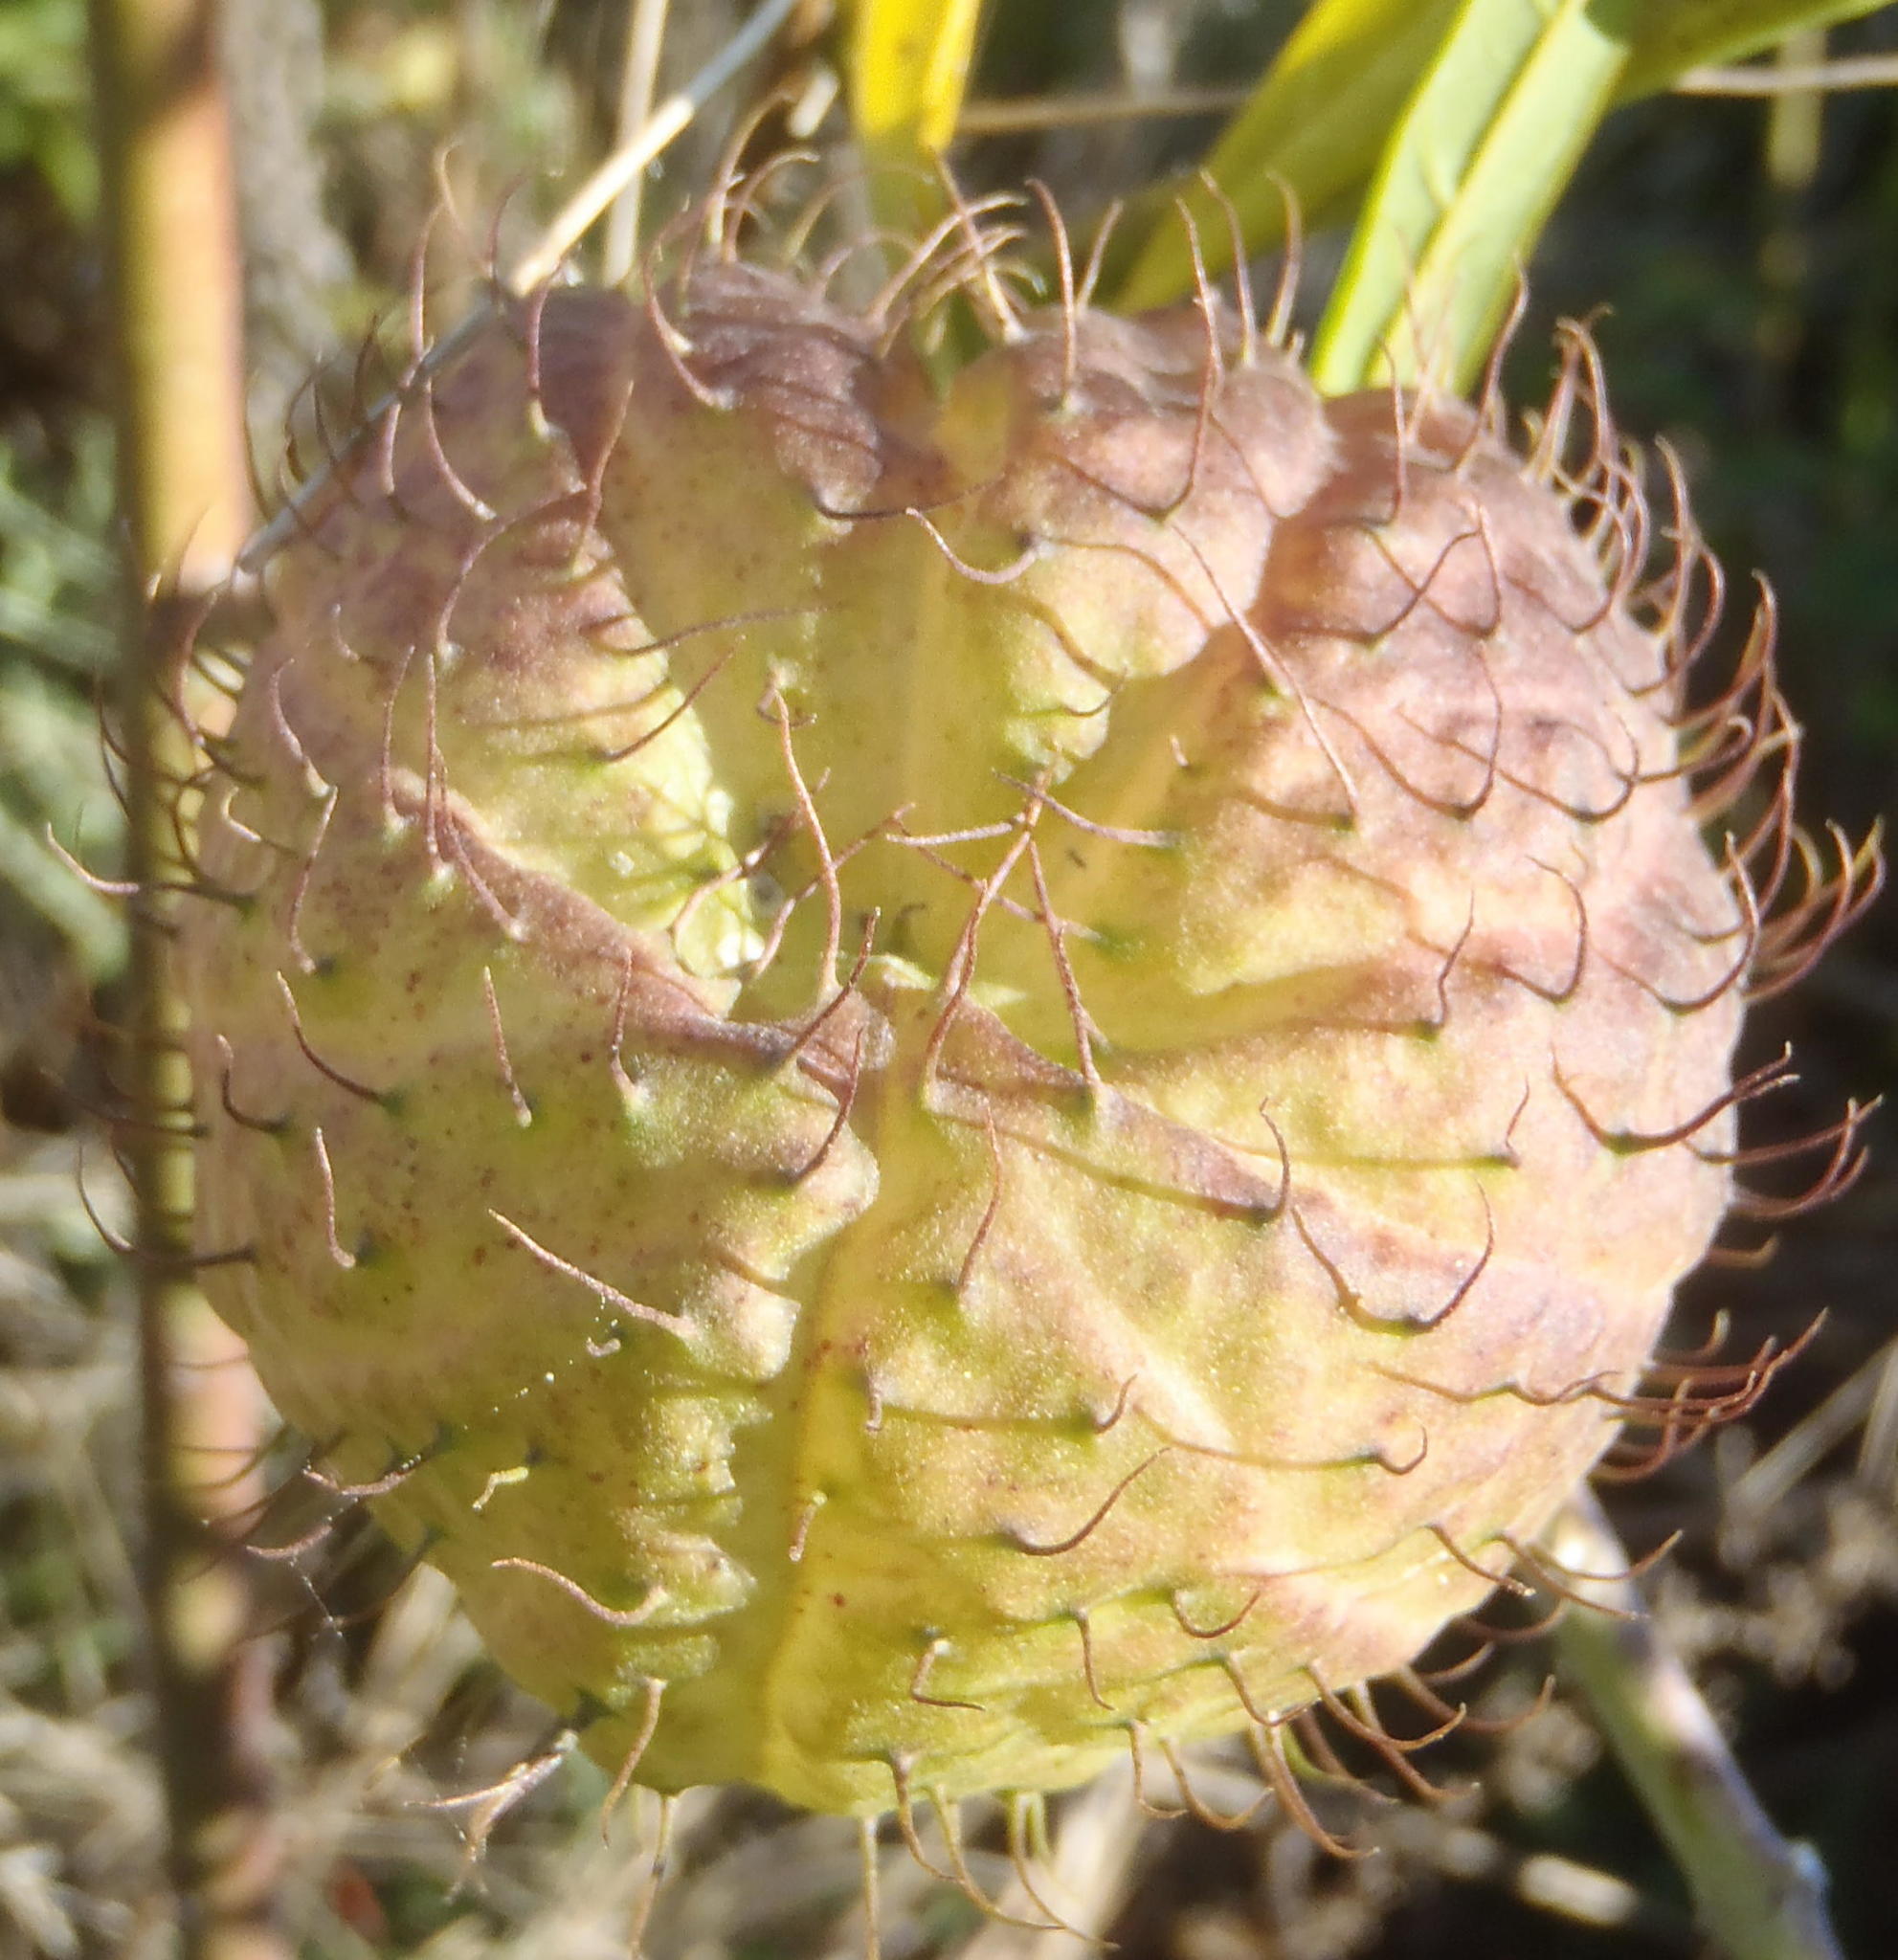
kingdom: Plantae
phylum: Tracheophyta
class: Magnoliopsida
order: Gentianales
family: Apocynaceae
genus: Gomphocarpus
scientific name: Gomphocarpus physocarpus
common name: Balloon cotton bush
